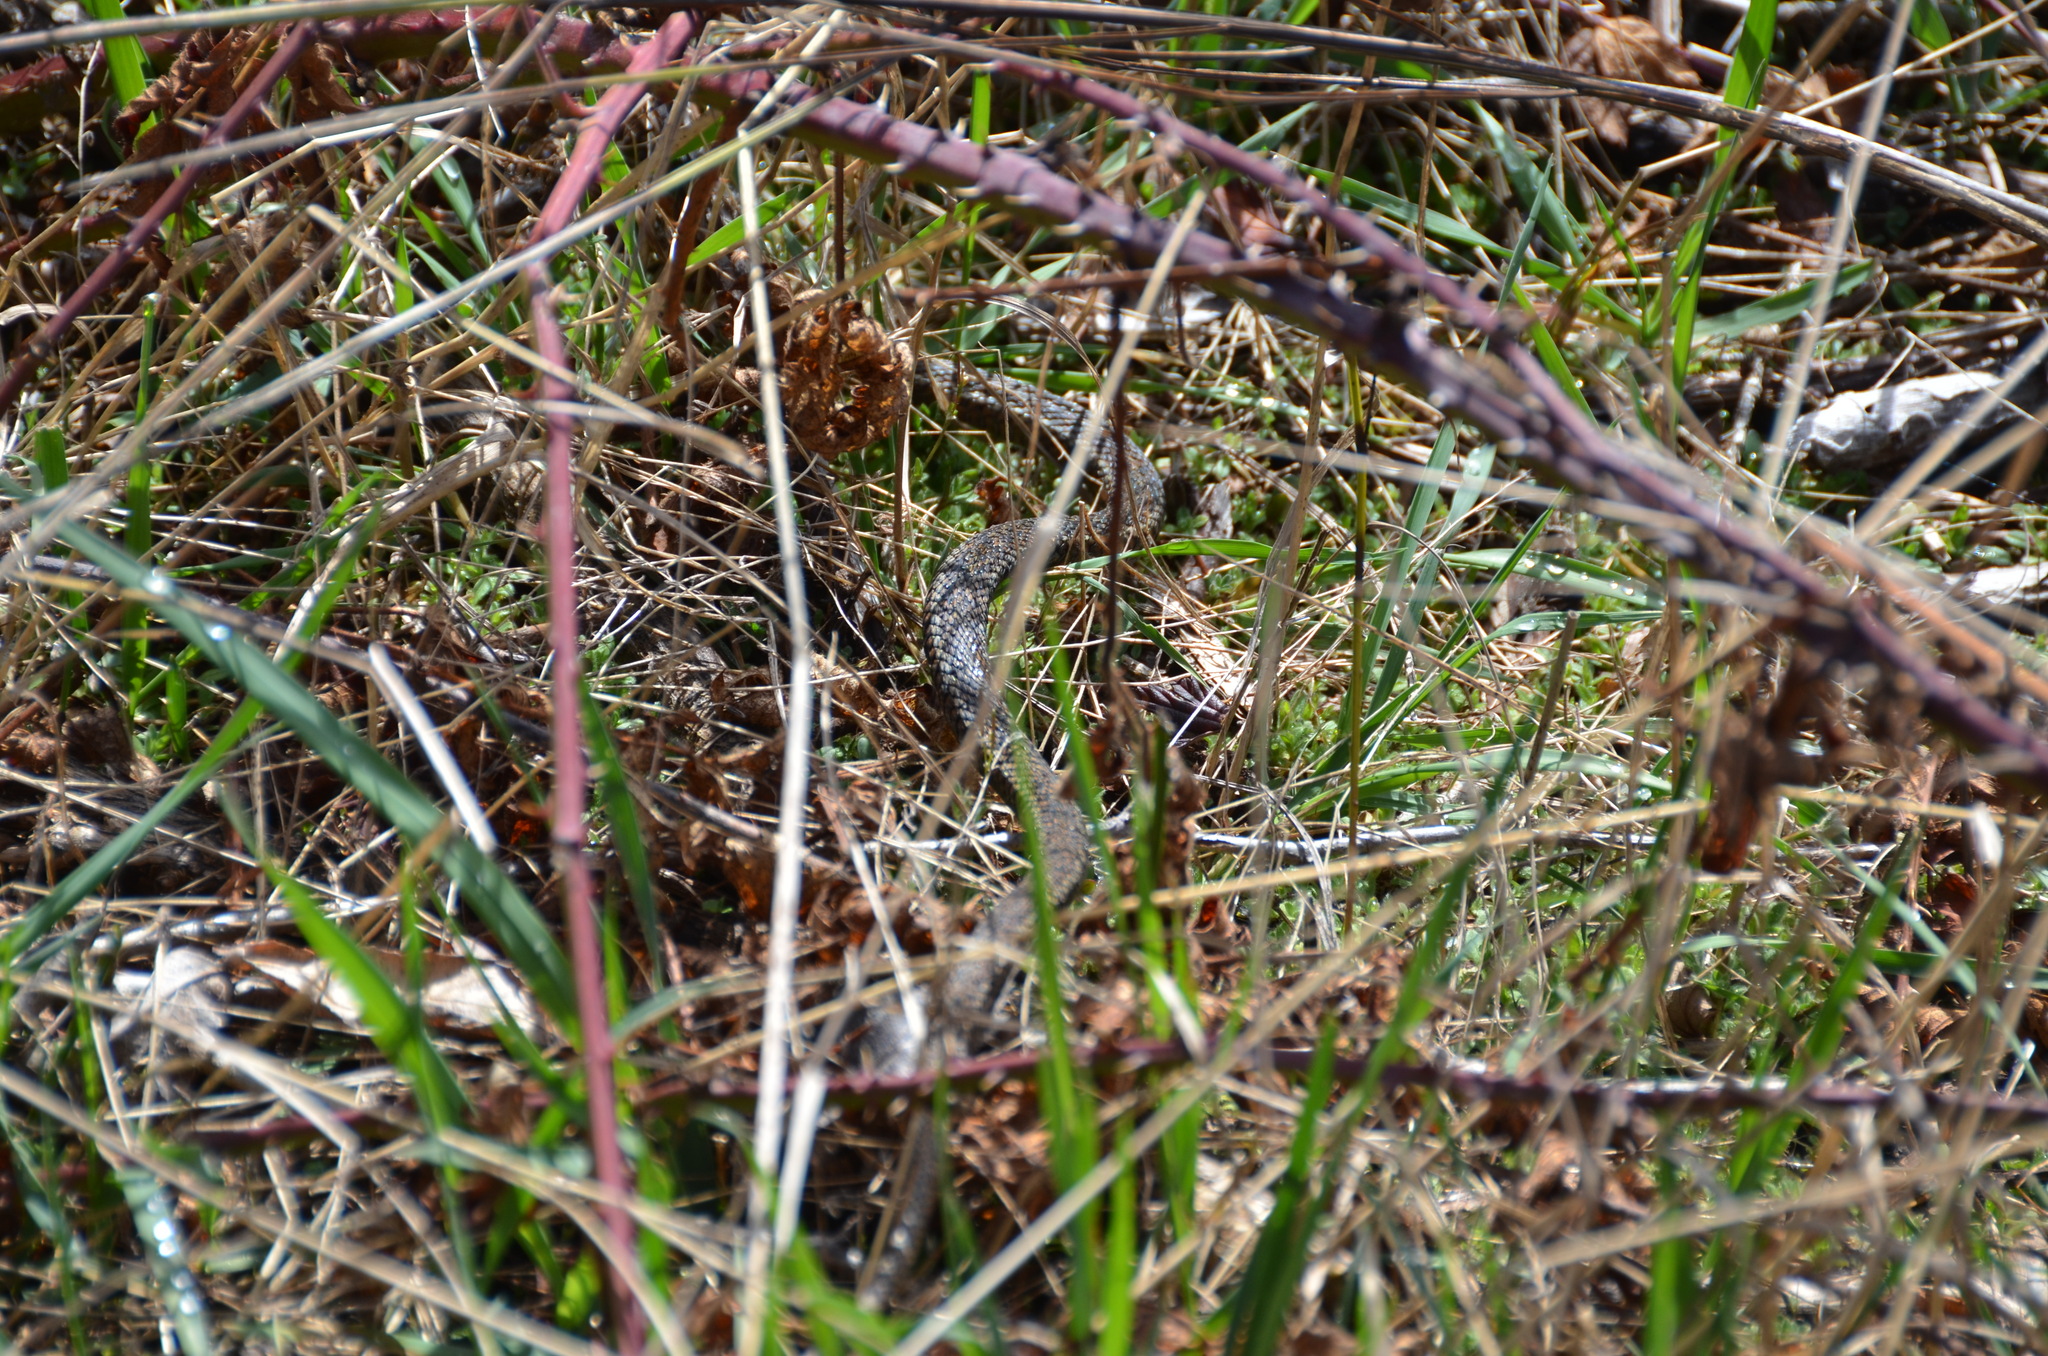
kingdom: Animalia
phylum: Chordata
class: Squamata
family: Colubridae
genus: Thamnophis
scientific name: Thamnophis ordinoides
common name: Northwestern garter snake
